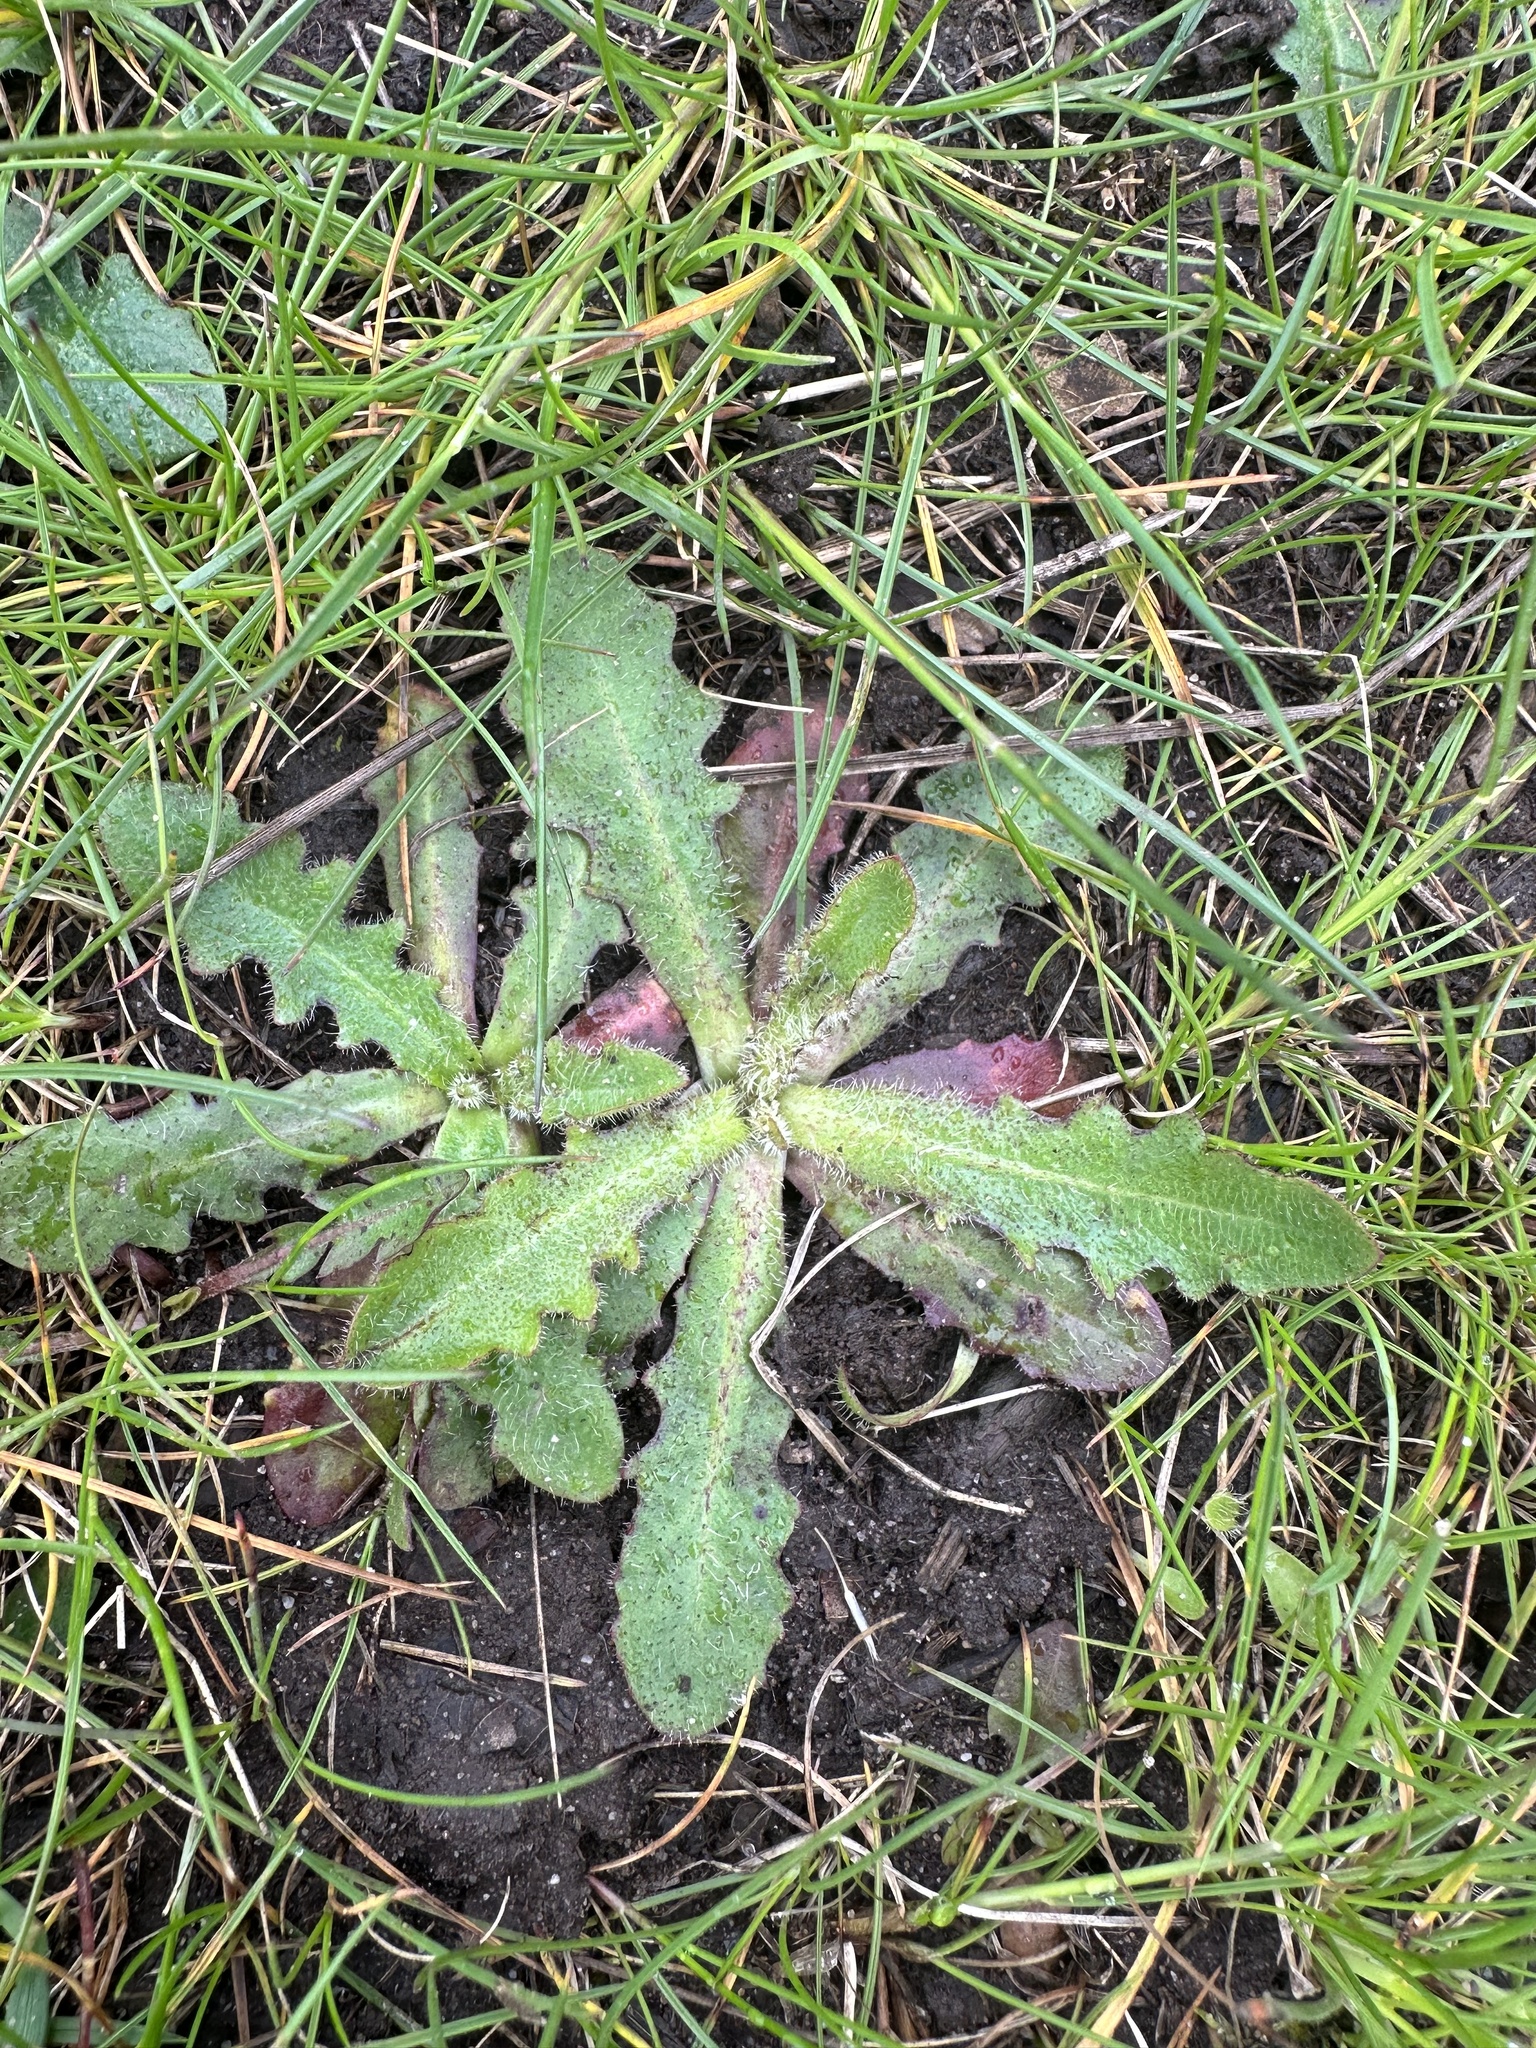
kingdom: Plantae
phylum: Tracheophyta
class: Magnoliopsida
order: Asterales
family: Asteraceae
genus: Hypochaeris
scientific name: Hypochaeris radicata
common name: Flatweed
